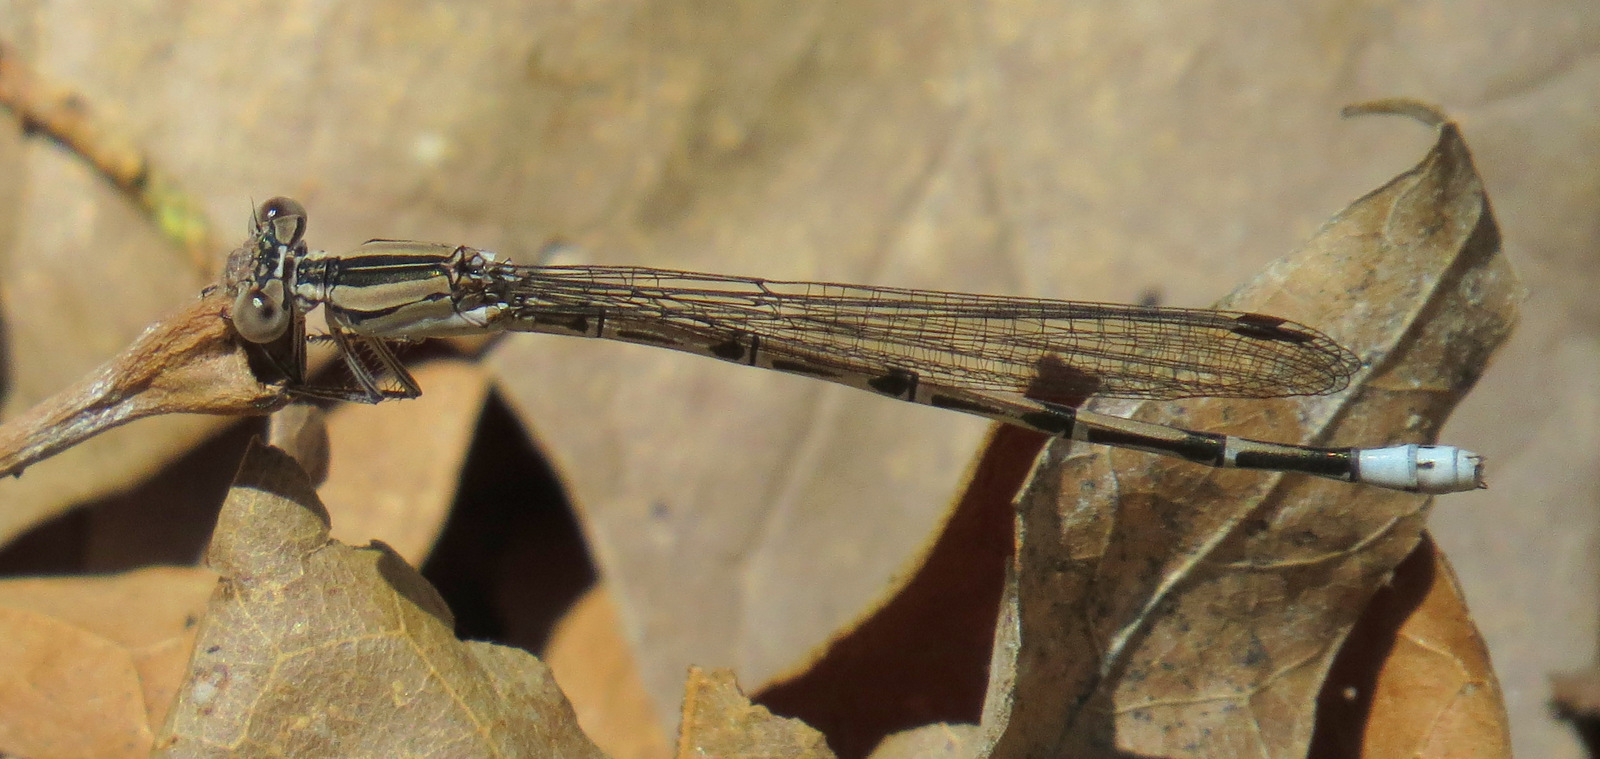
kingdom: Animalia
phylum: Arthropoda
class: Insecta
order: Odonata
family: Coenagrionidae
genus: Argia
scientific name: Argia funebris
